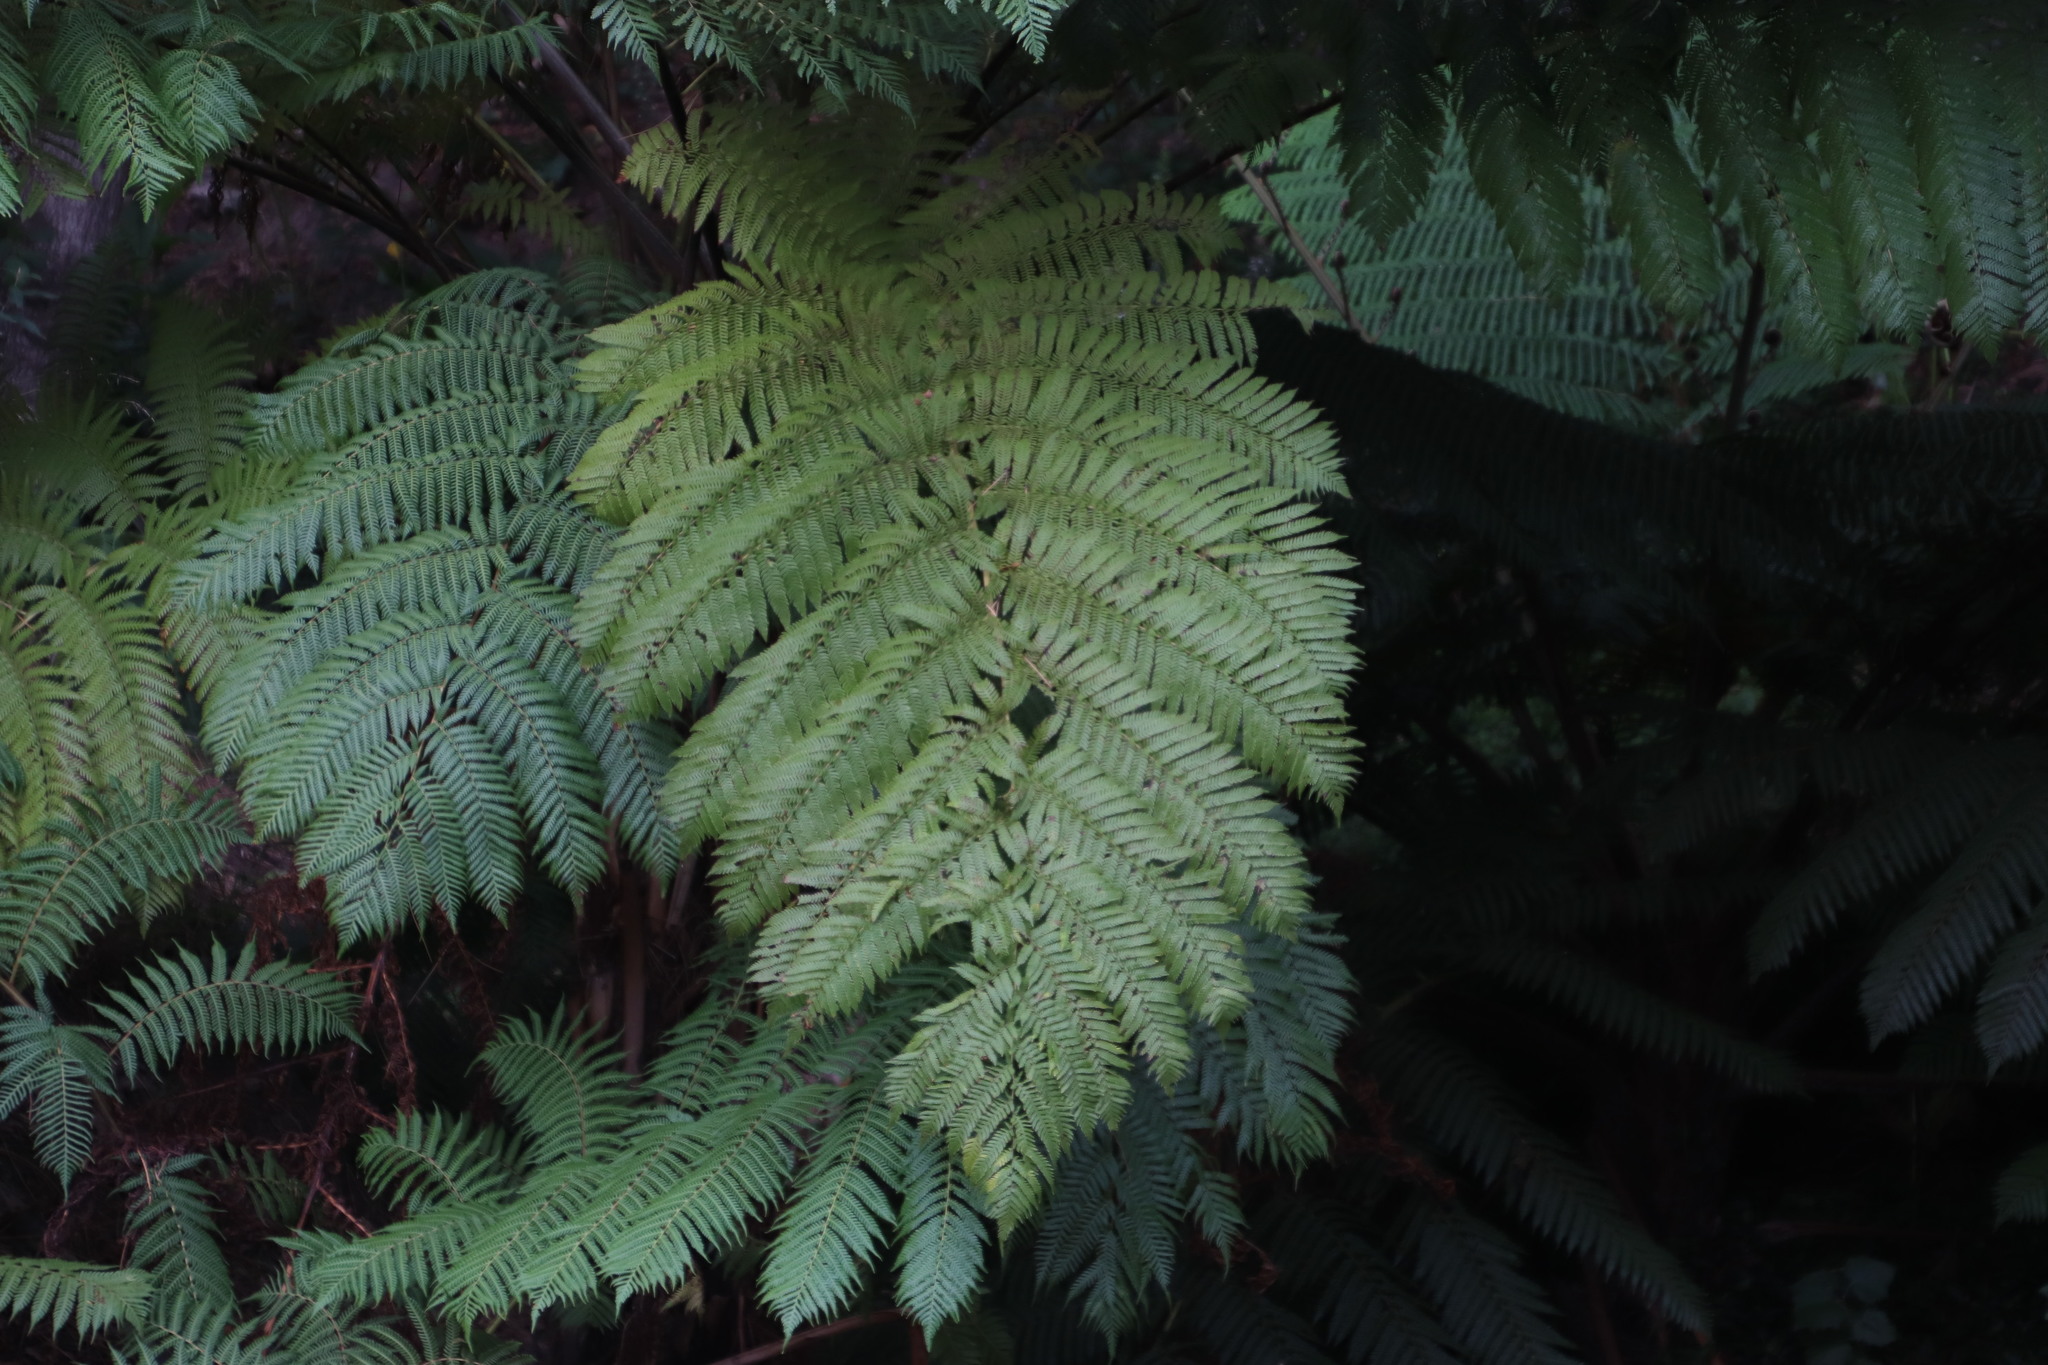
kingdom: Plantae
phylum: Tracheophyta
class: Polypodiopsida
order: Cyatheales
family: Cyatheaceae
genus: Sphaeropteris
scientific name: Sphaeropteris cooperi
